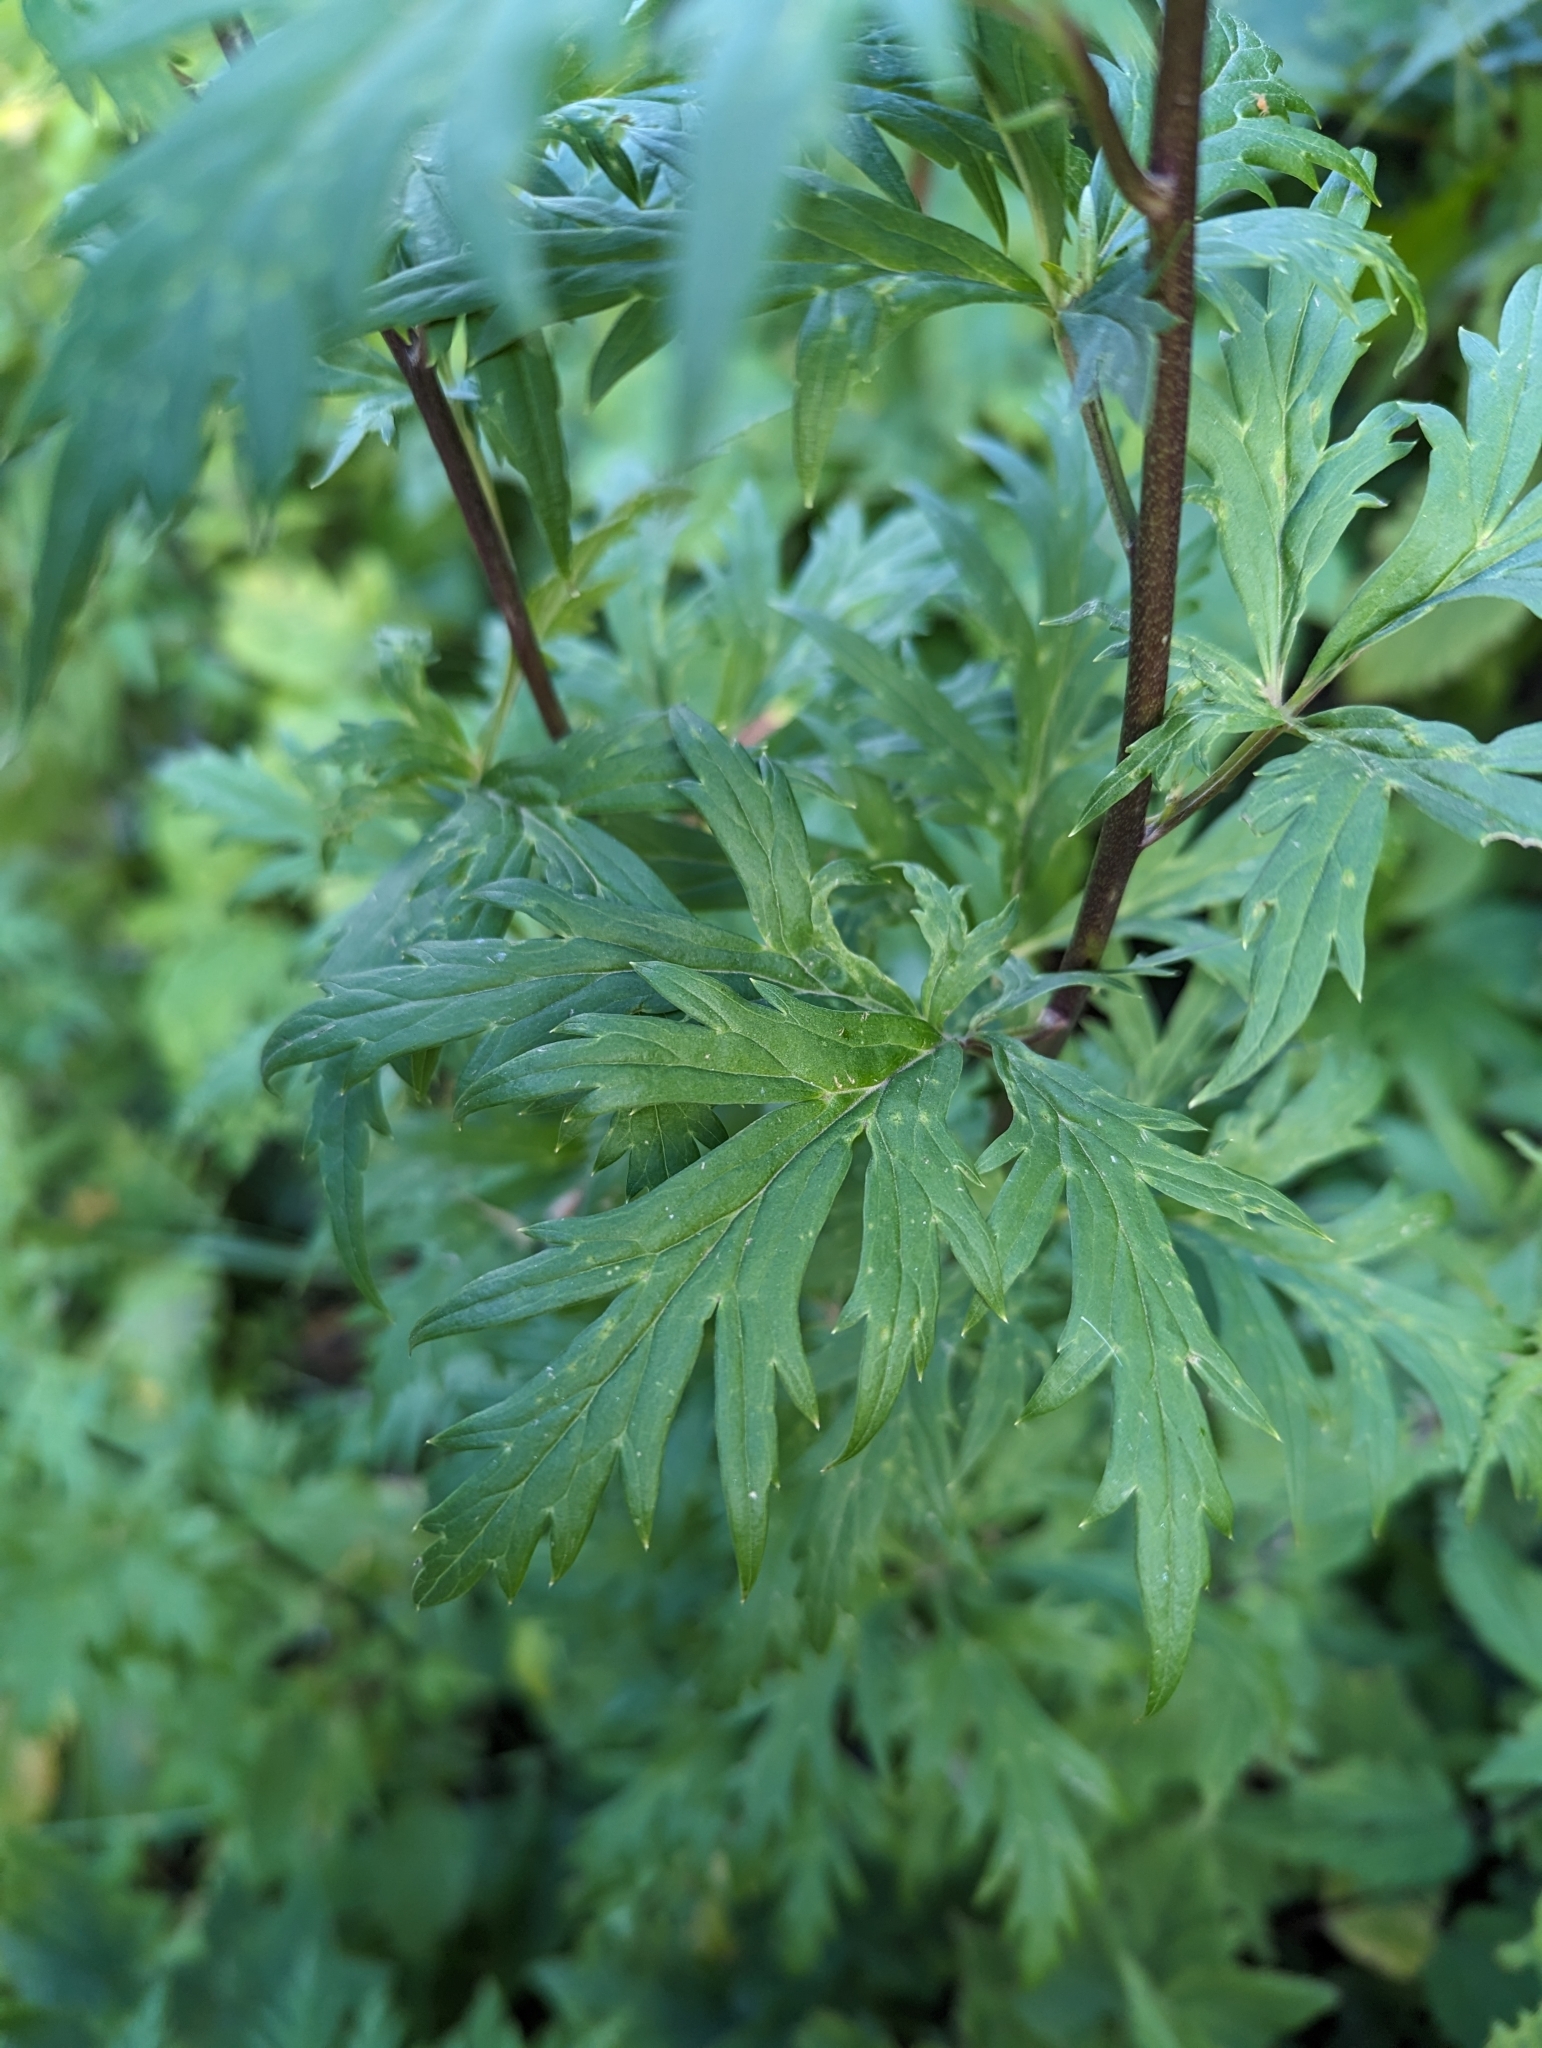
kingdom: Plantae
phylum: Tracheophyta
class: Magnoliopsida
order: Ranunculales
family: Ranunculaceae
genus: Aconitum
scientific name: Aconitum degenii
